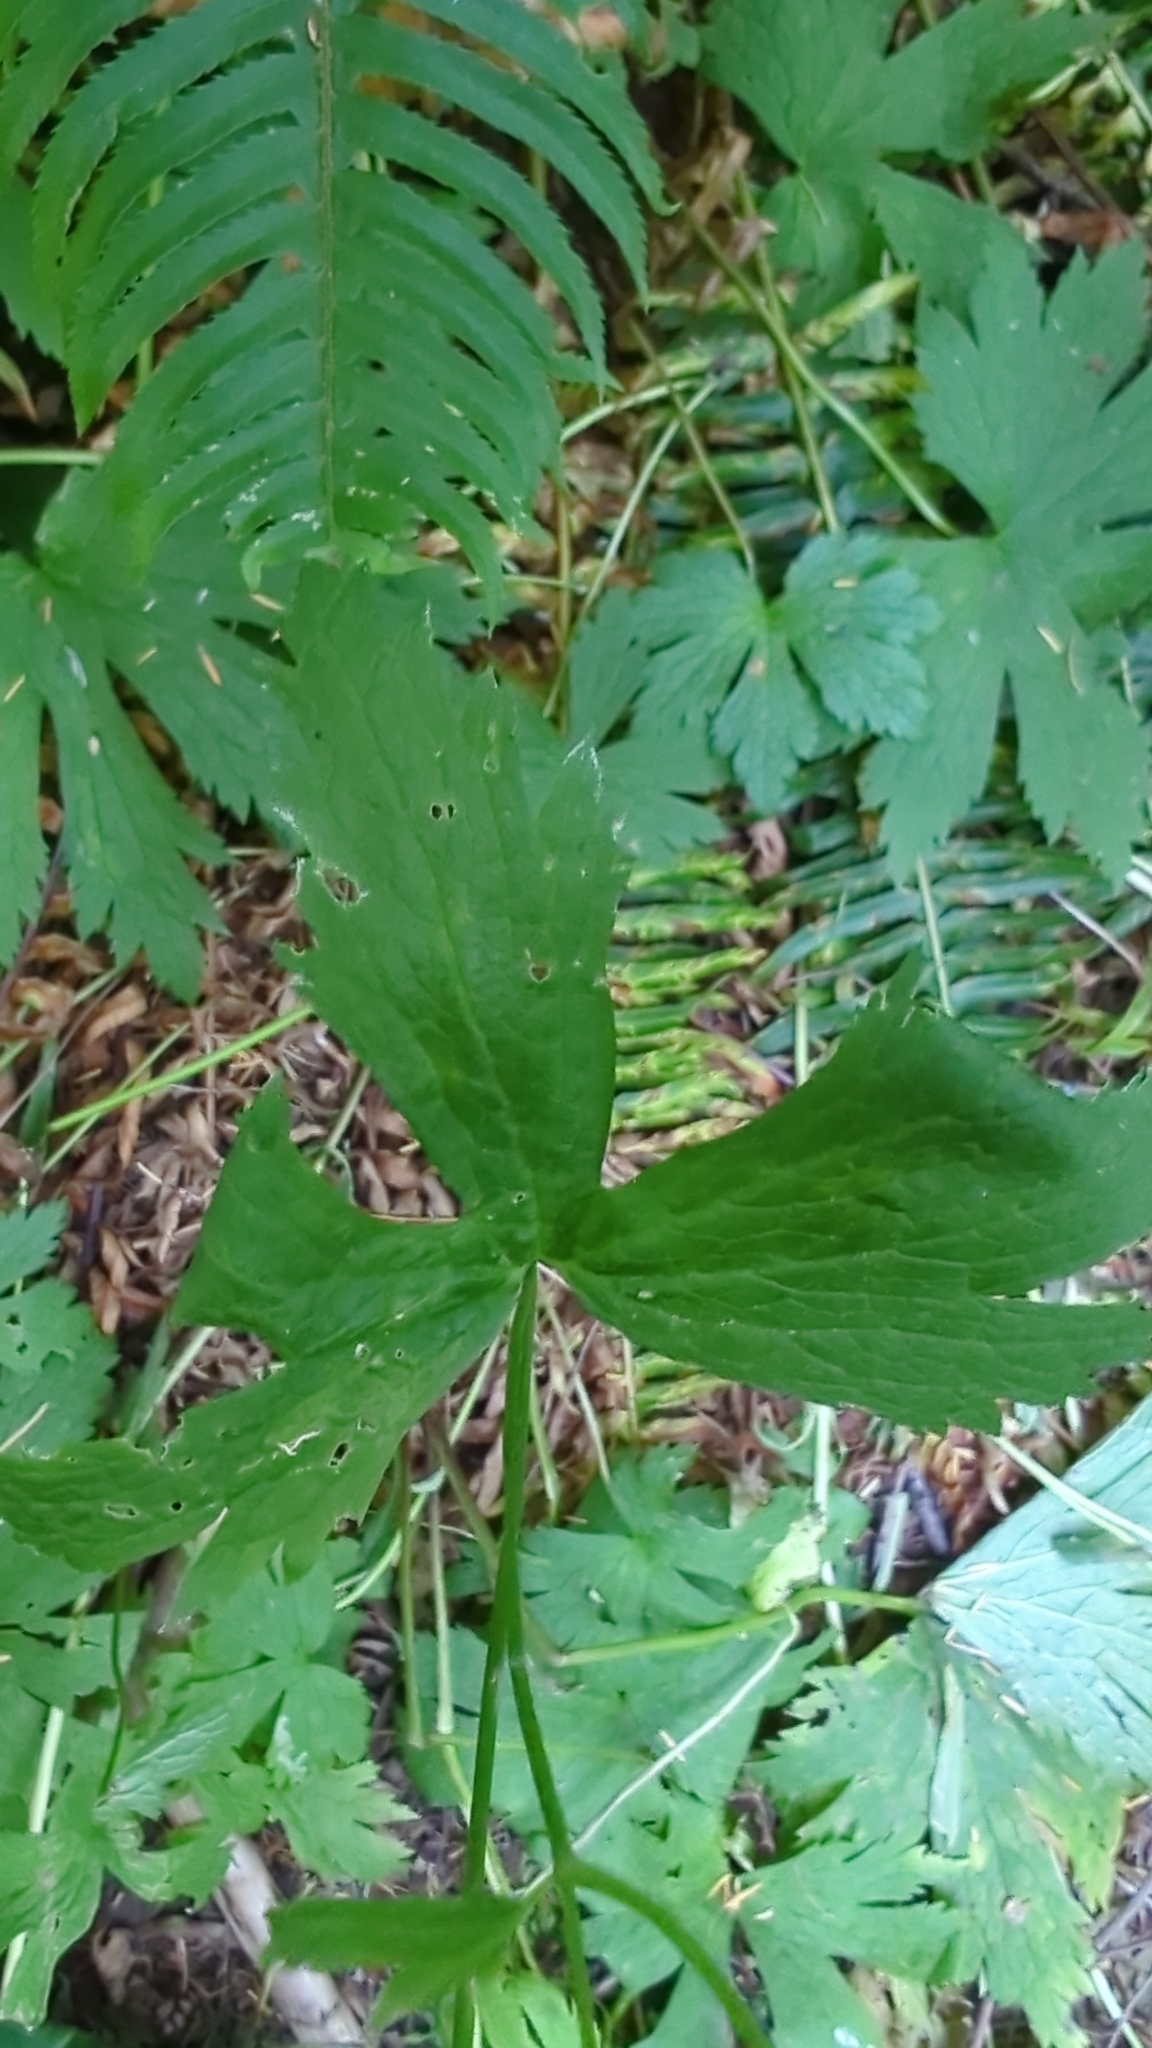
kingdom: Plantae
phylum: Tracheophyta
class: Magnoliopsida
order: Ranunculales
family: Ranunculaceae
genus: Trautvetteria
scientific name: Trautvetteria carolinensis
